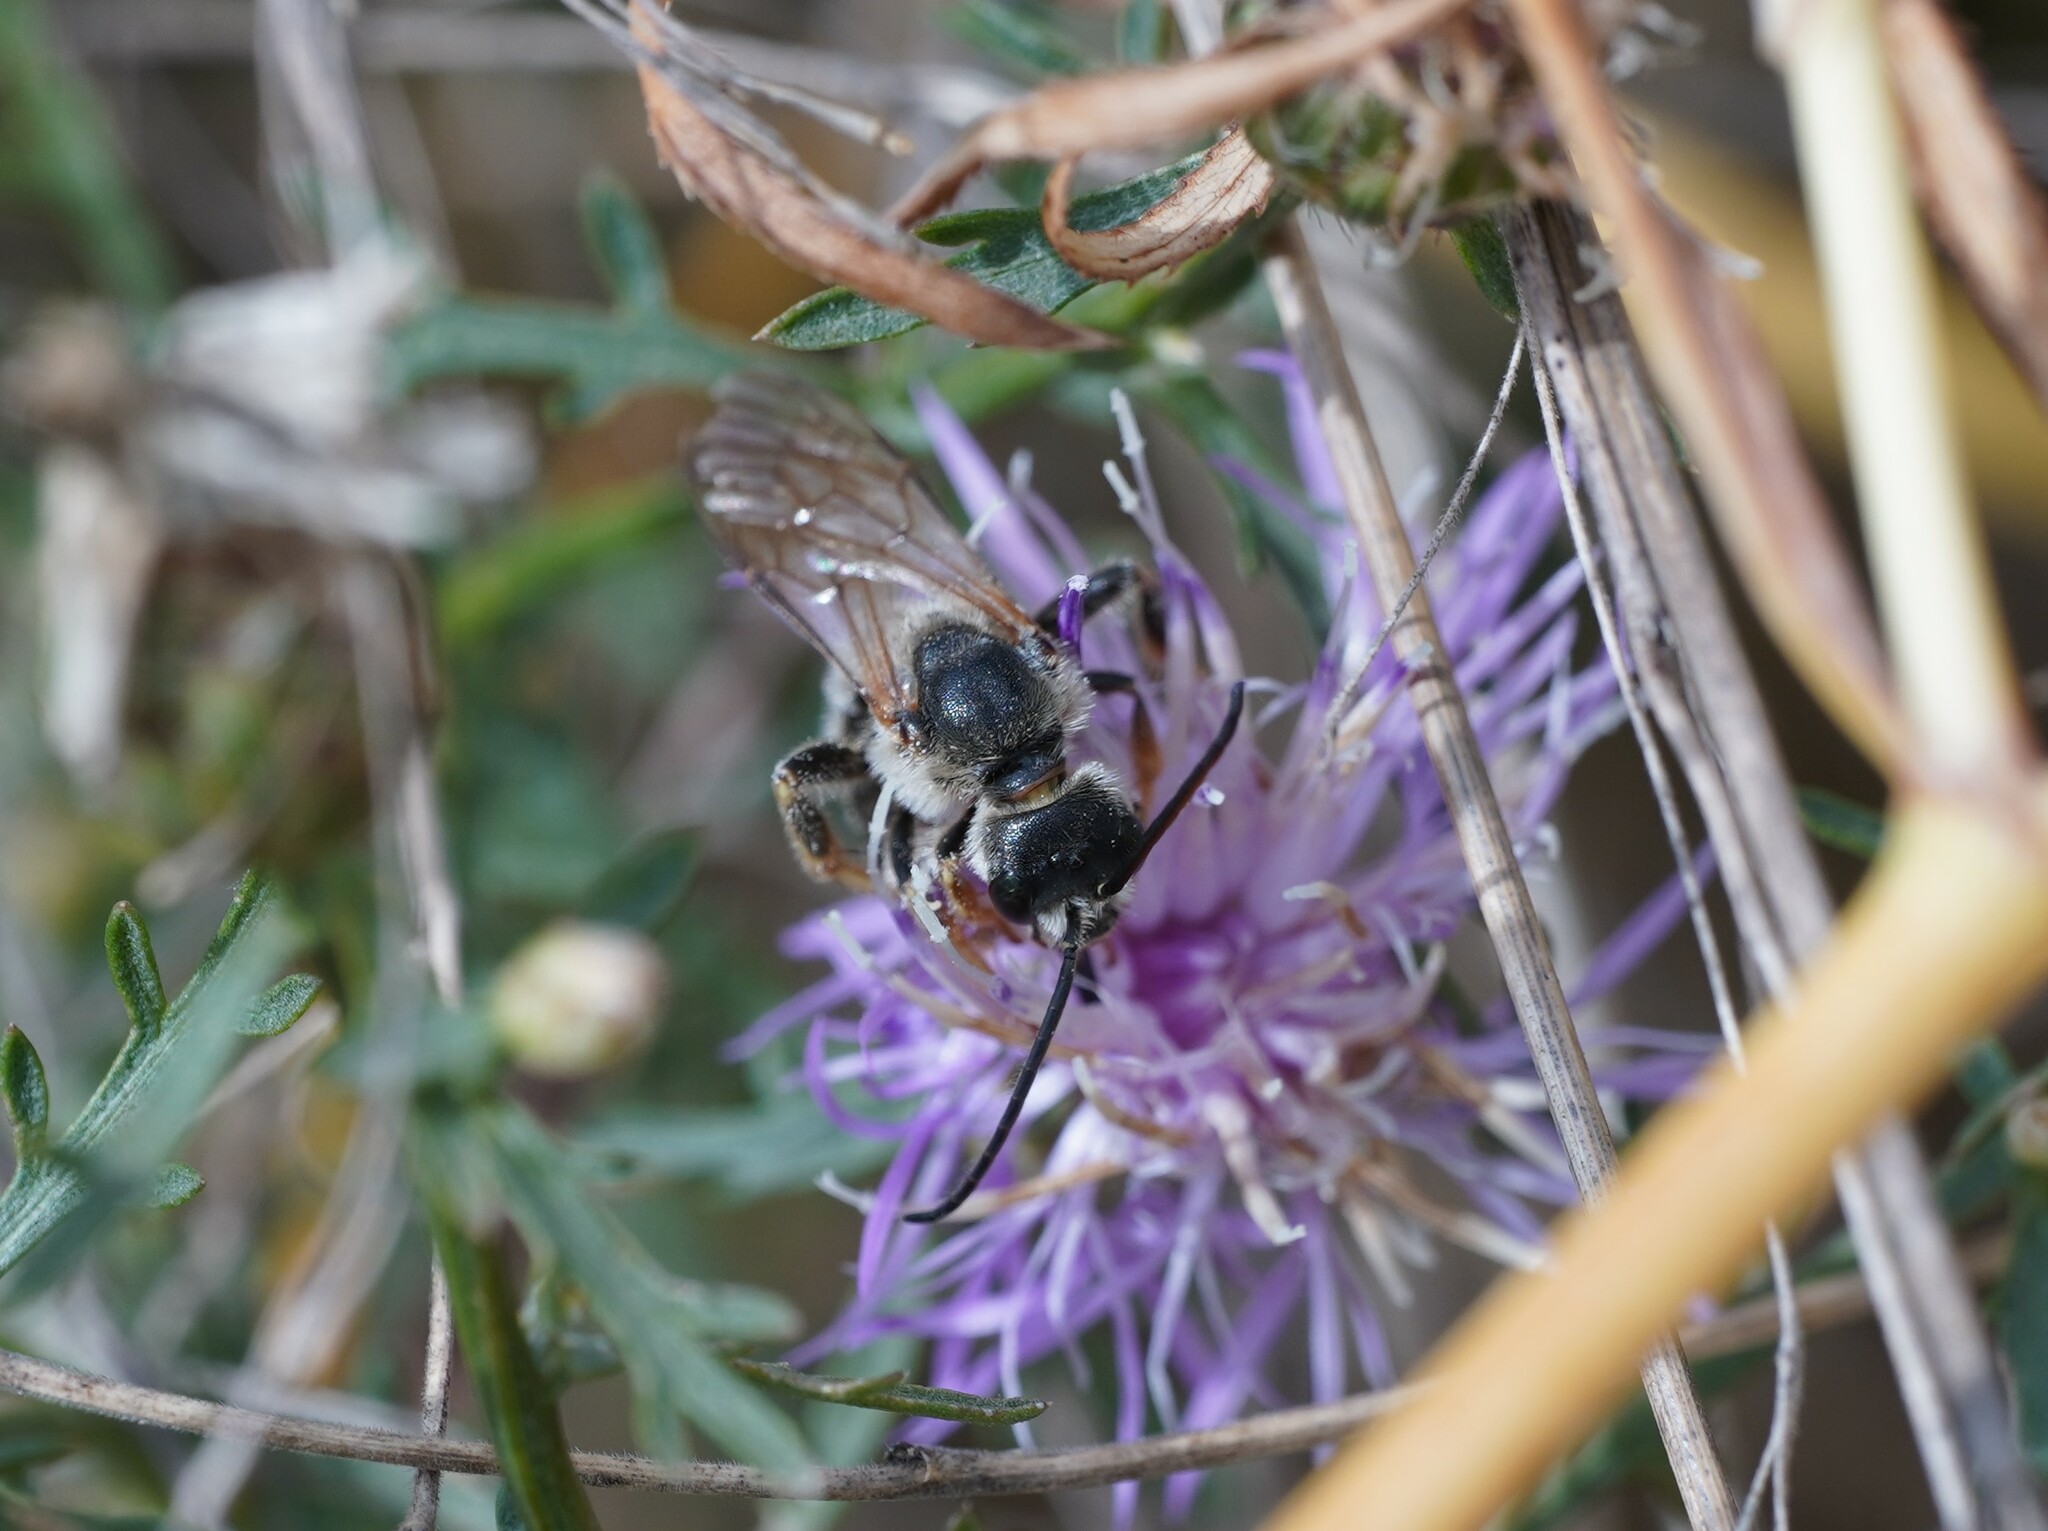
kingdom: Animalia
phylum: Arthropoda
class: Insecta
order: Hymenoptera
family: Halictidae
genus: Halictus
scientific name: Halictus quadricinctus
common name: Giant furrow bee
